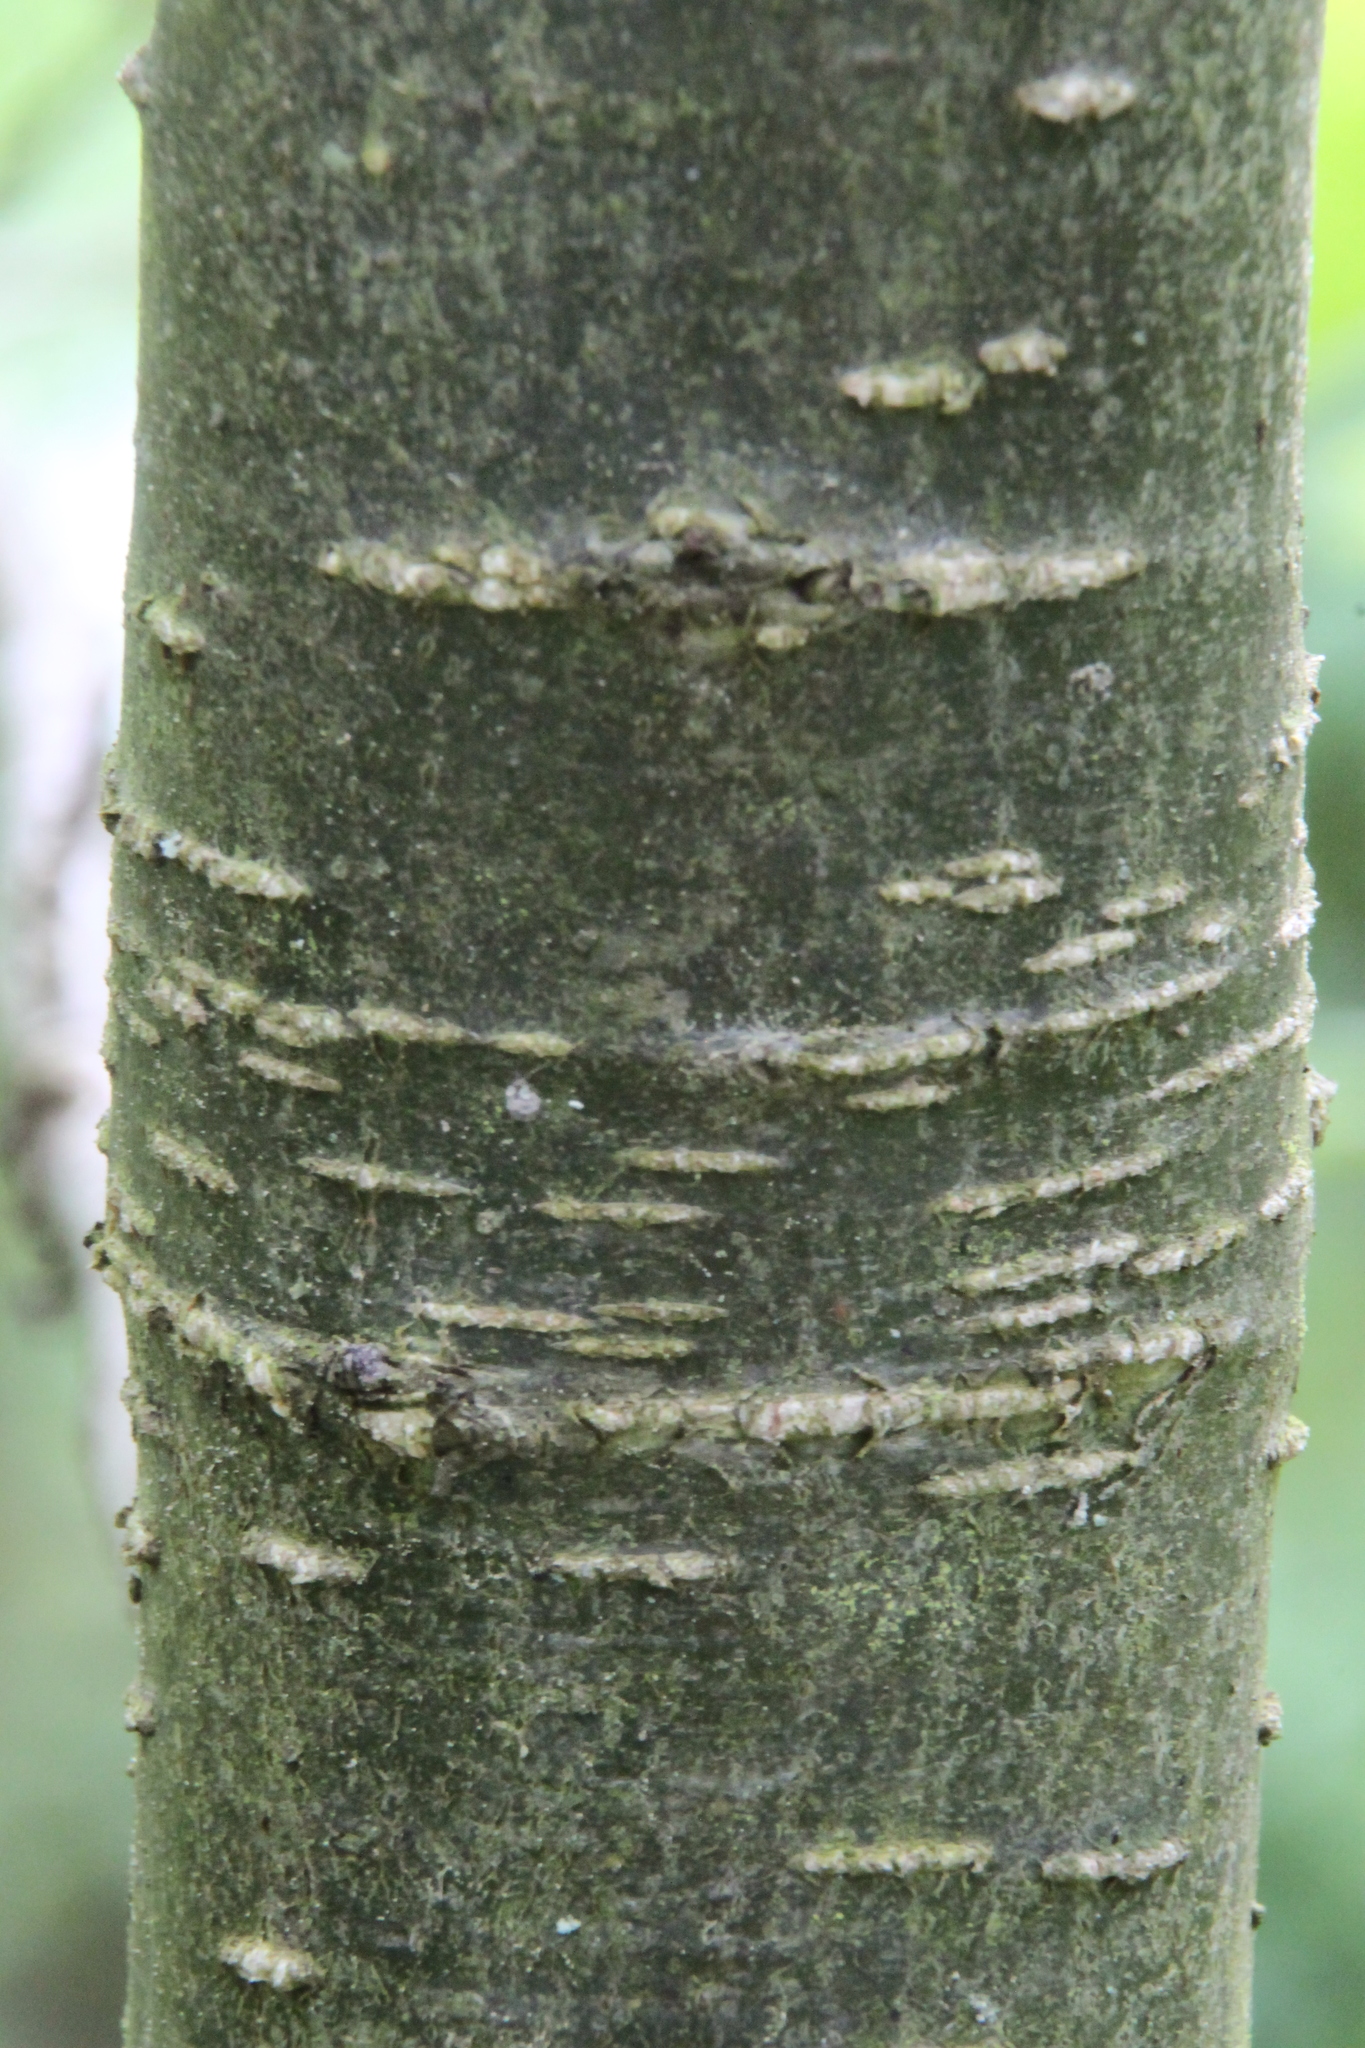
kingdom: Plantae
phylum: Tracheophyta
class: Magnoliopsida
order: Fagales
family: Betulaceae
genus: Alnus
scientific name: Alnus glutinosa
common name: Black alder
